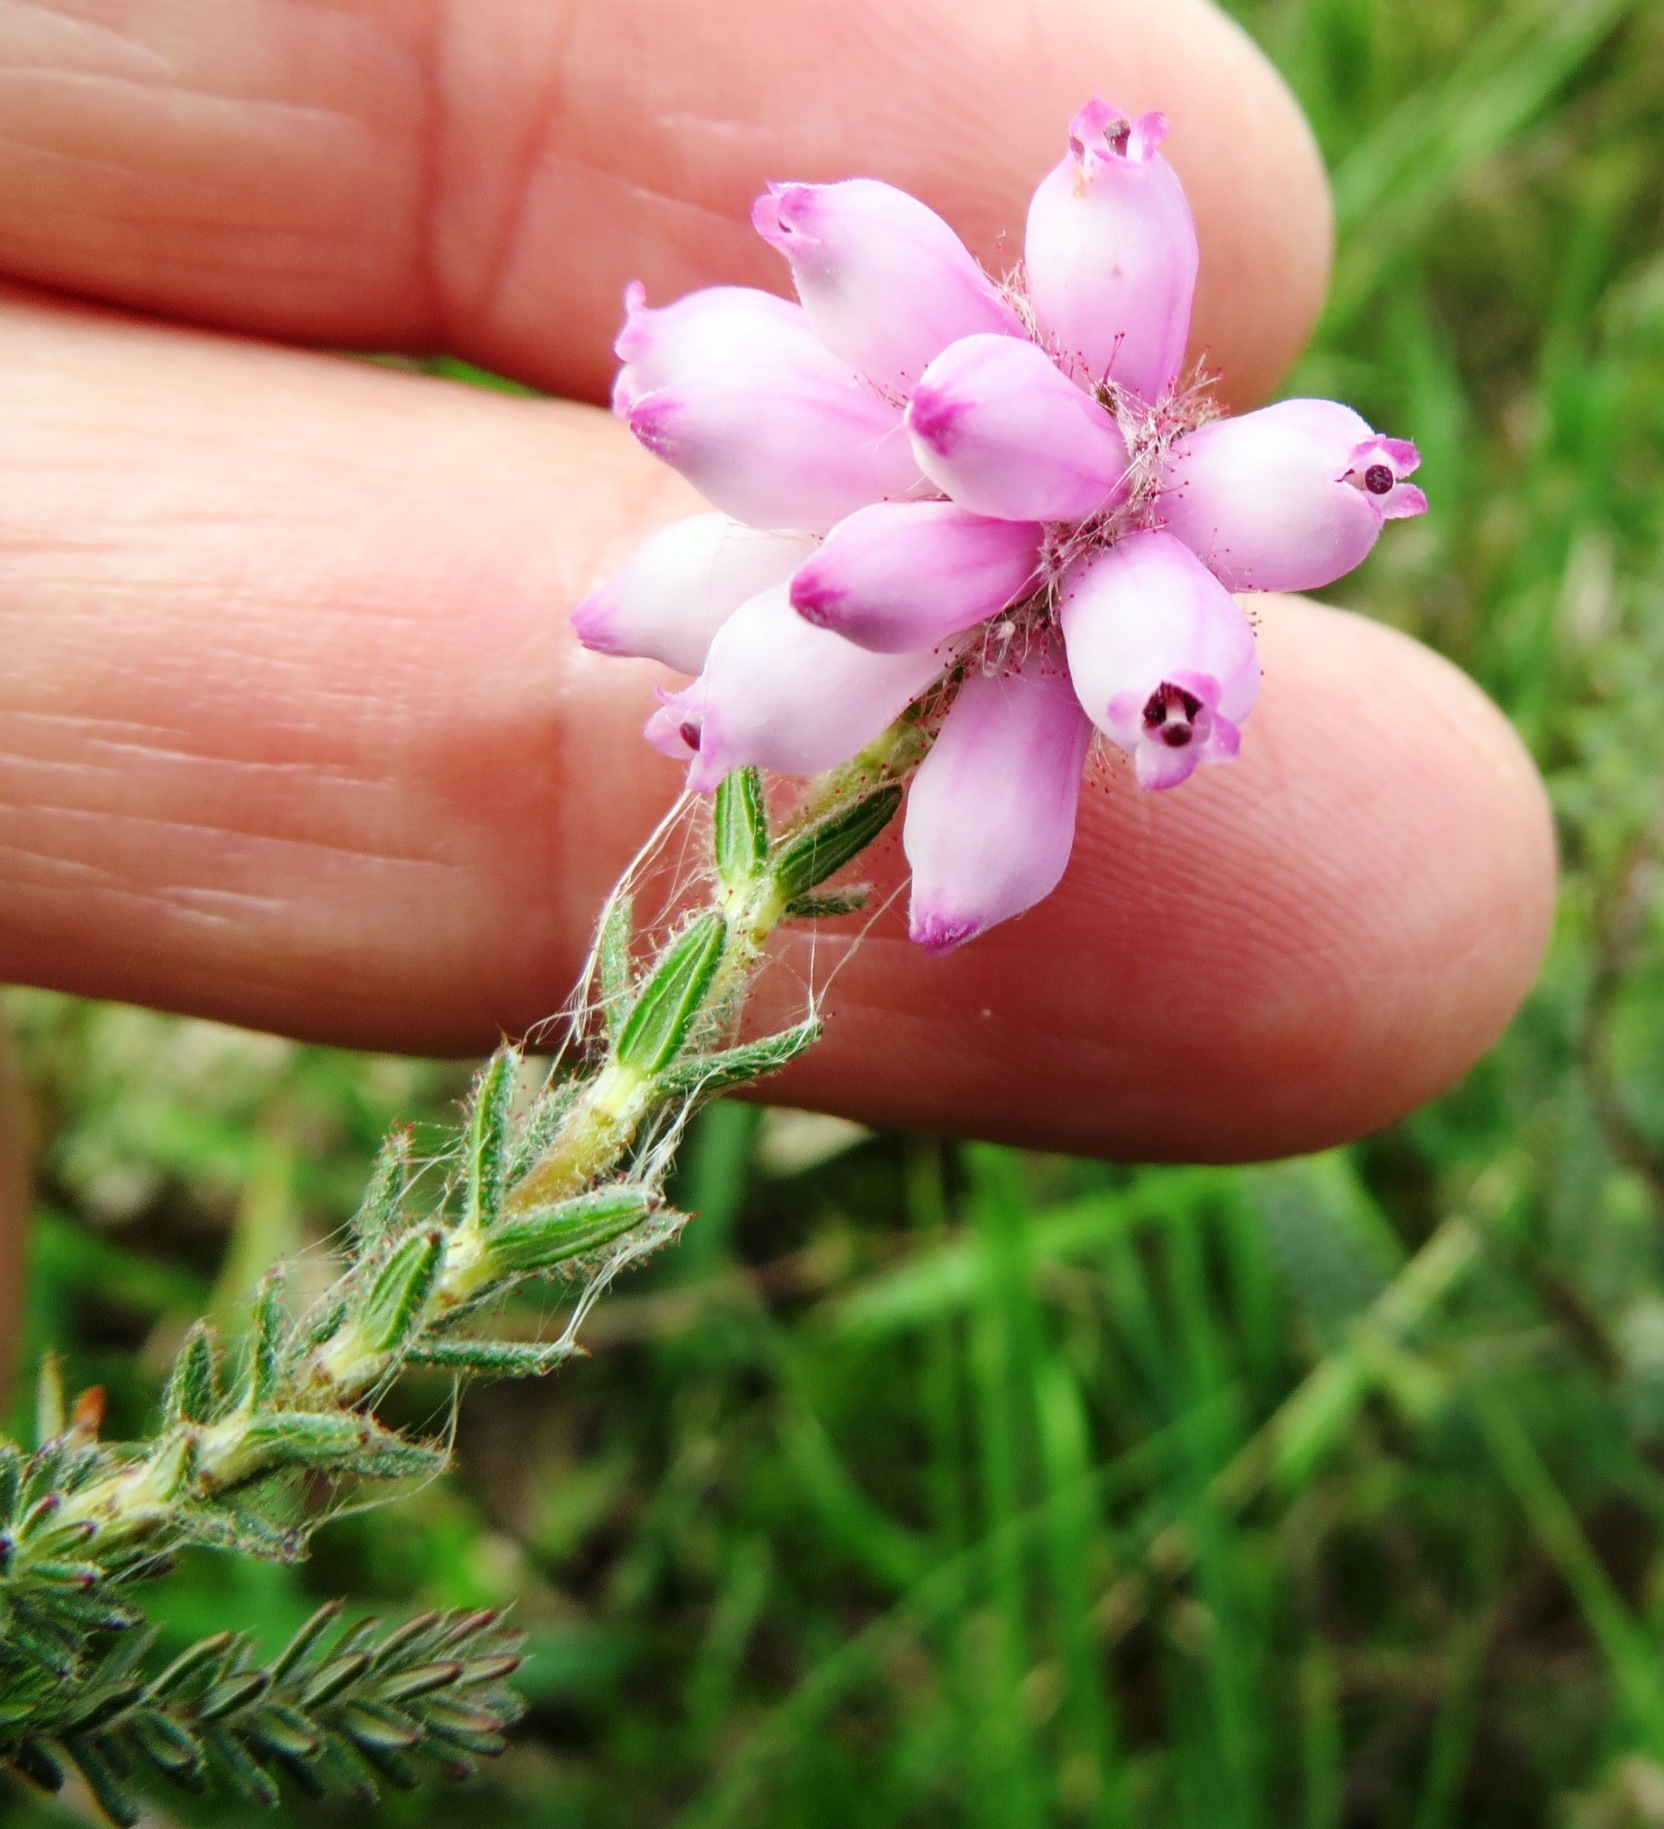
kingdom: Plantae
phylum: Tracheophyta
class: Magnoliopsida
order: Ericales
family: Ericaceae
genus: Erica
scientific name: Erica tetralix
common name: Cross-leaved heath
